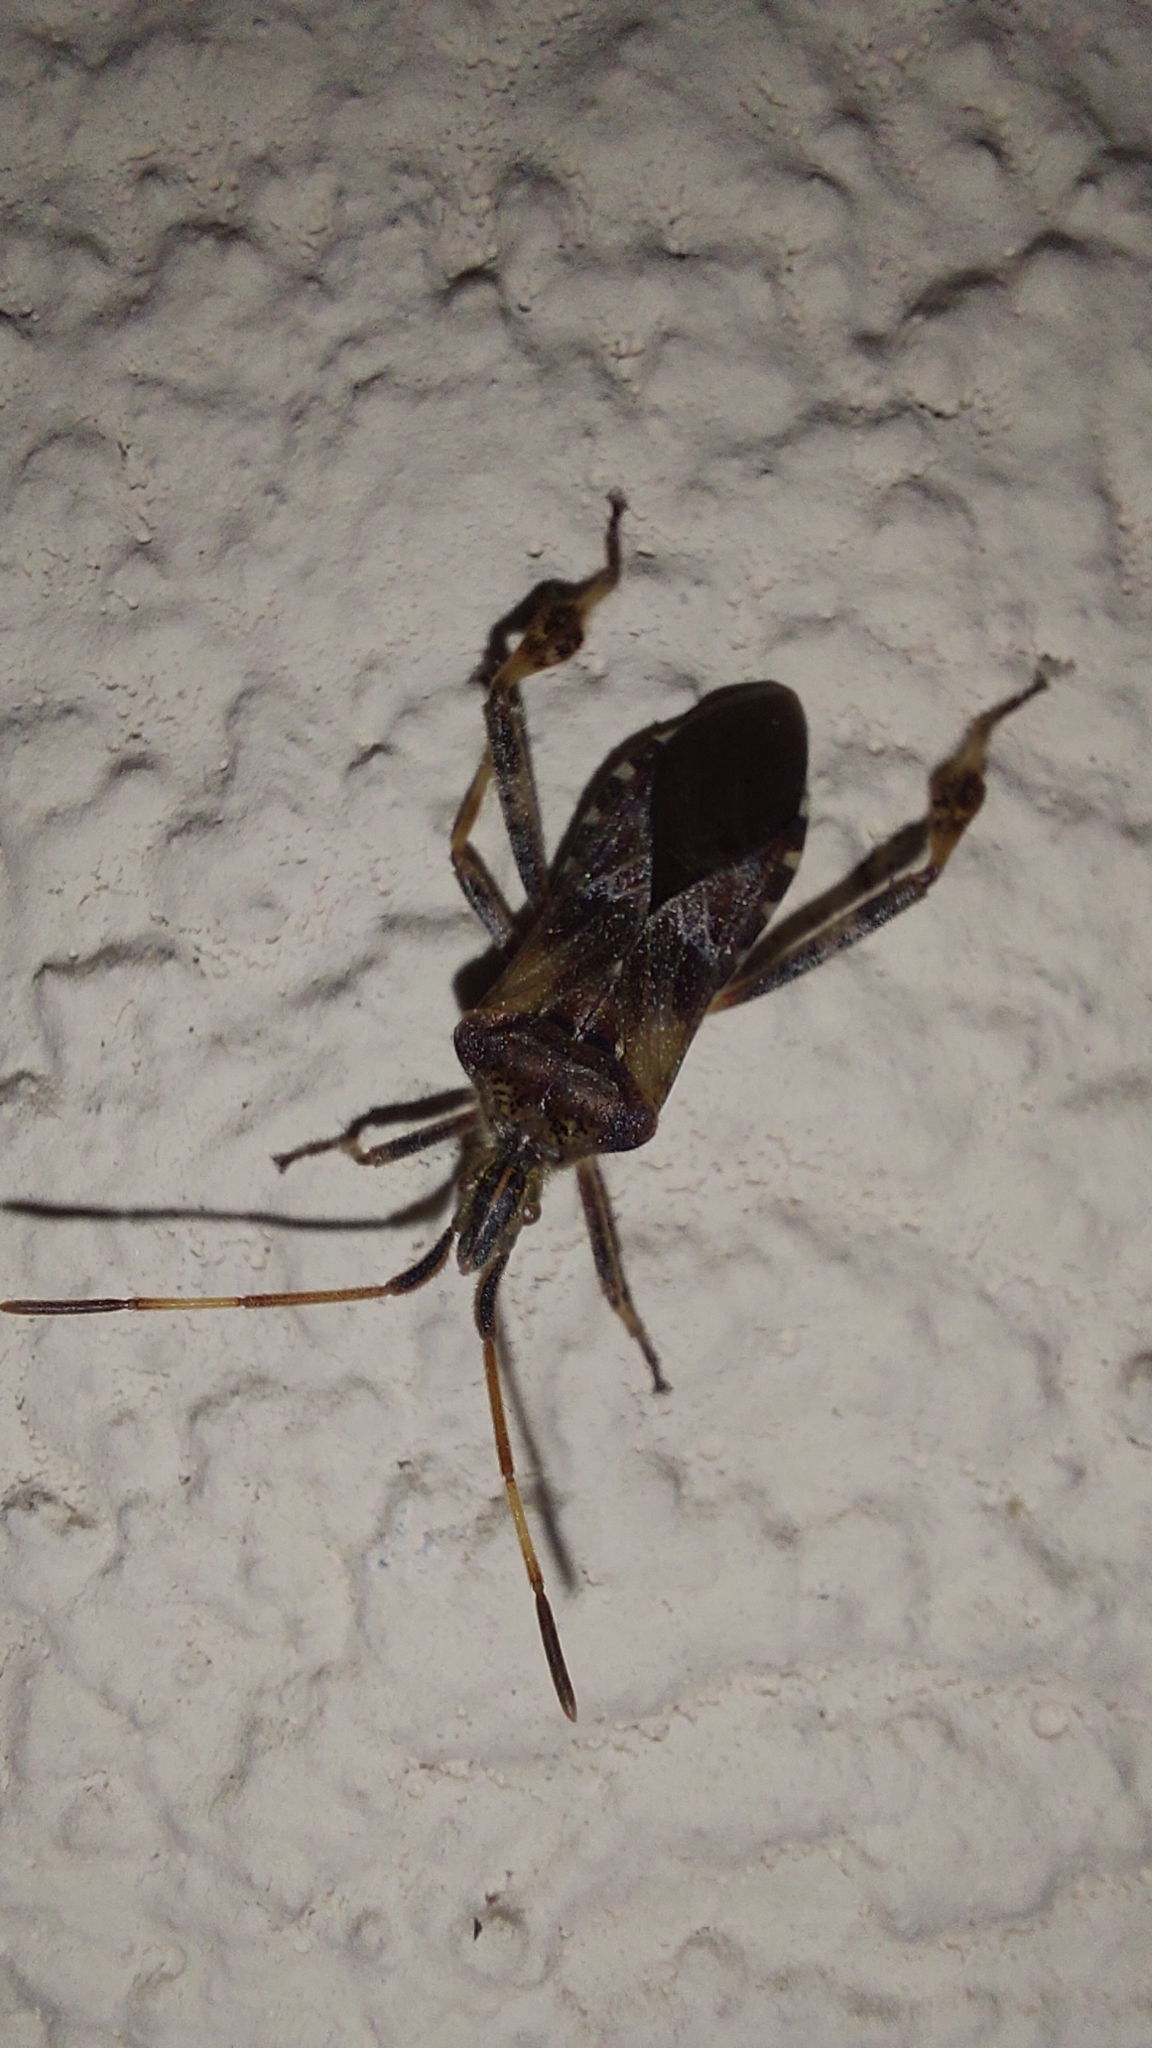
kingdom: Animalia
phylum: Arthropoda
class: Insecta
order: Hemiptera
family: Coreidae
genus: Leptoglossus
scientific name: Leptoglossus occidentalis
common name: Western conifer-seed bug
